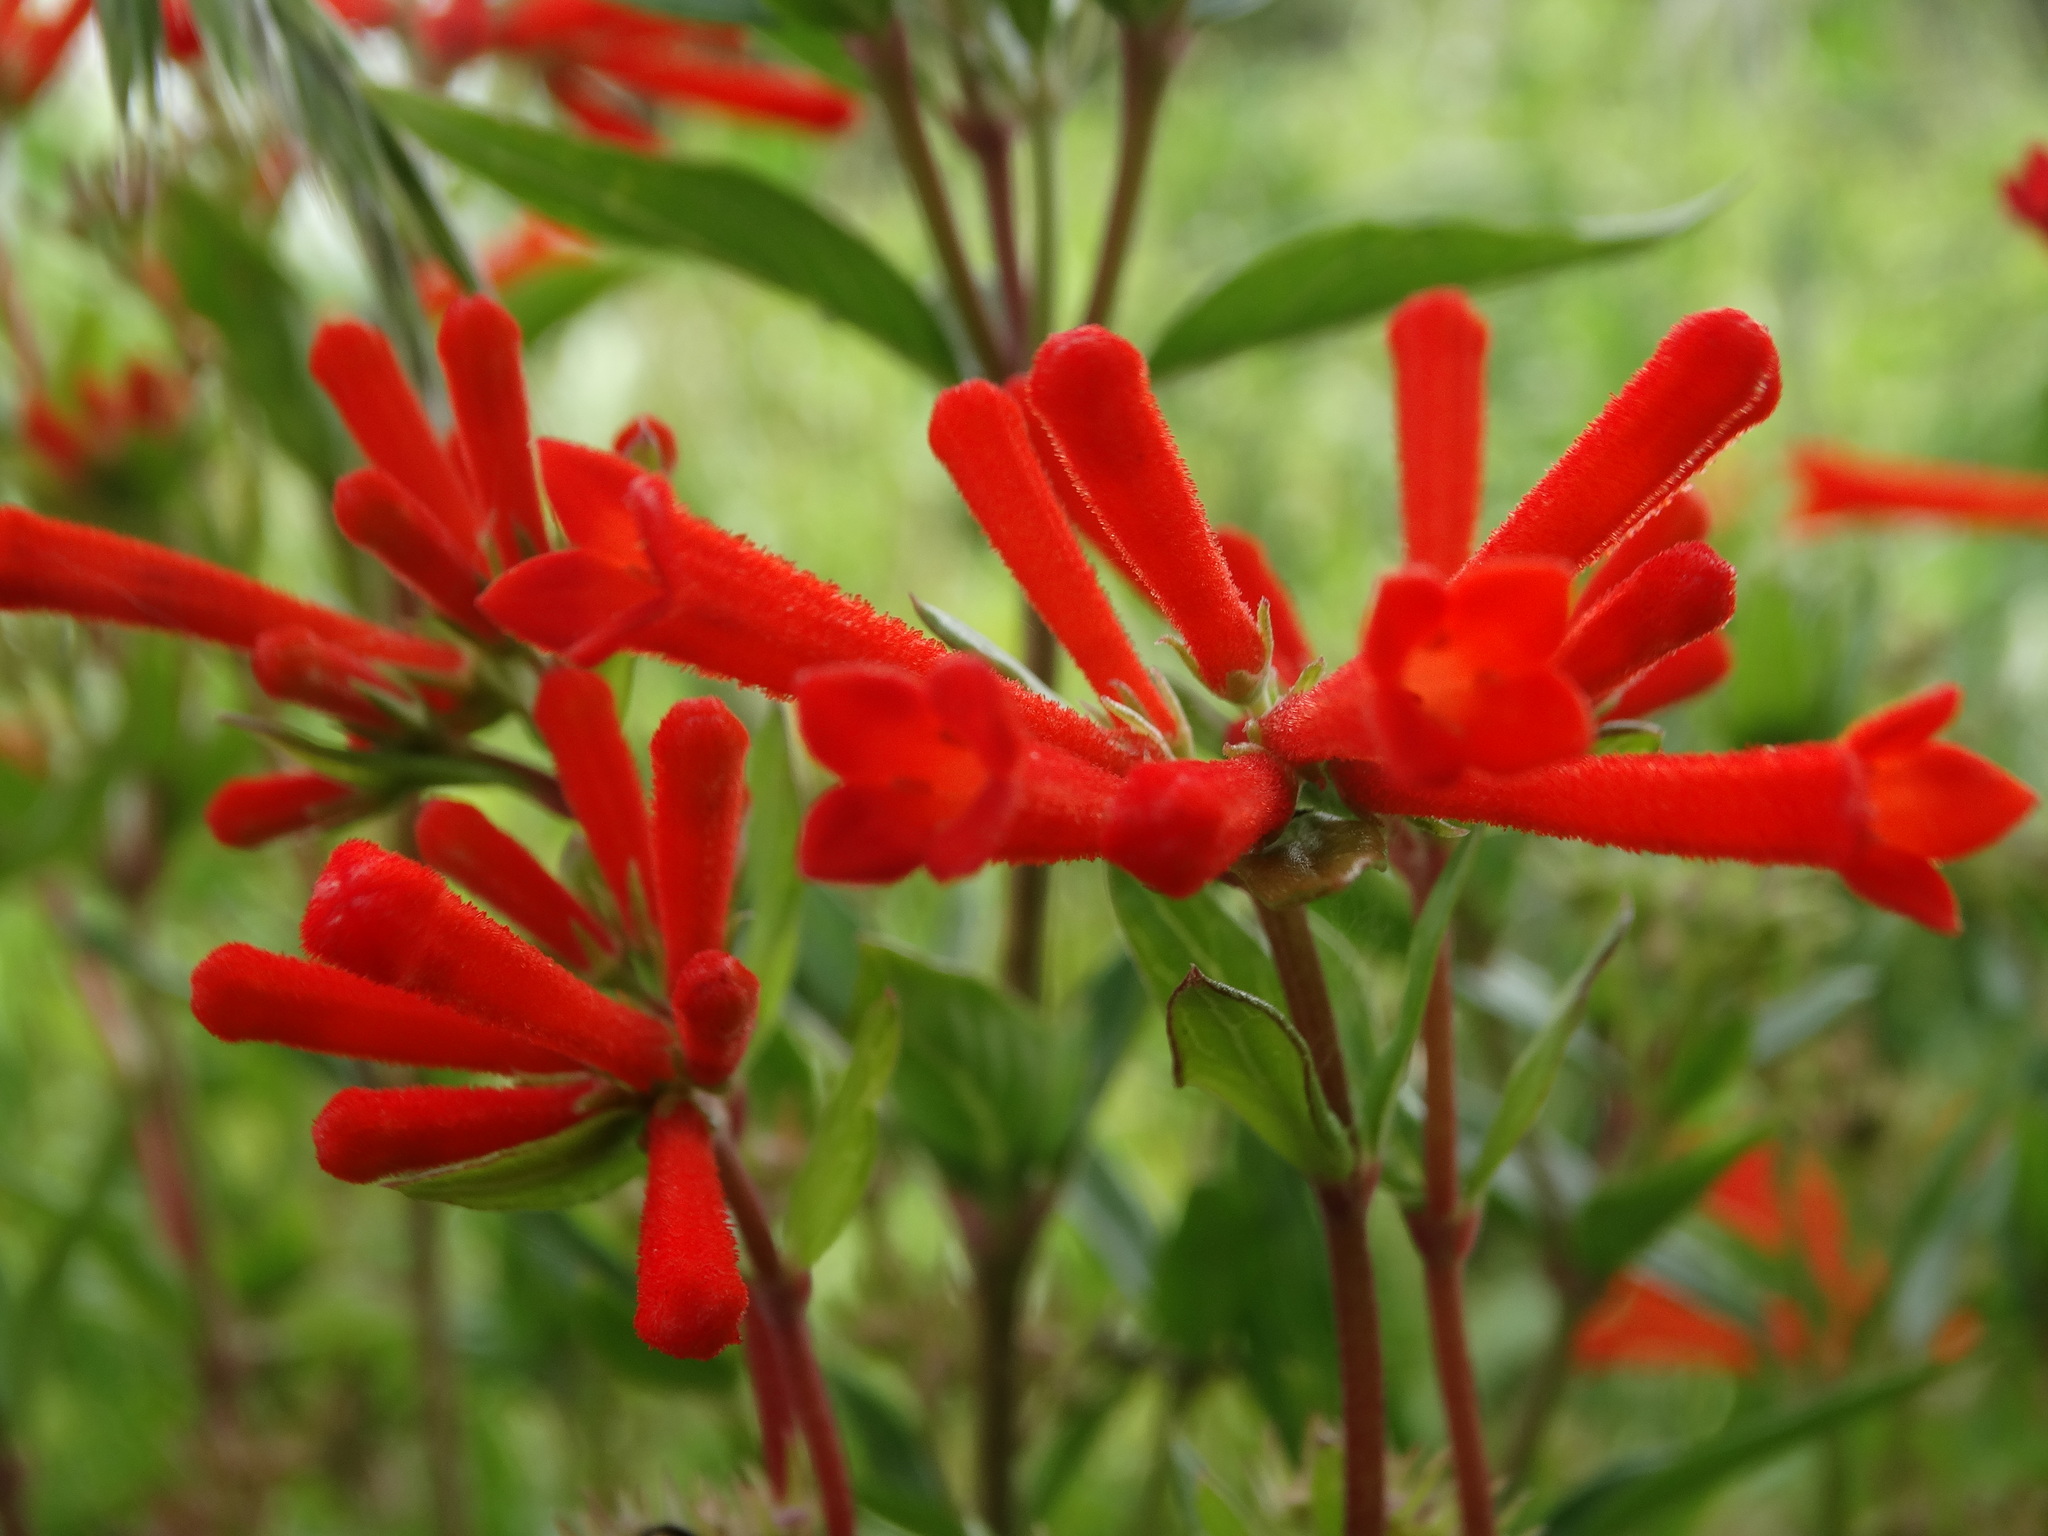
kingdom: Plantae
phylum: Tracheophyta
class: Magnoliopsida
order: Gentianales
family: Rubiaceae
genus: Bouvardia
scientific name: Bouvardia ternifolia
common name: Scarlet bouvardia
